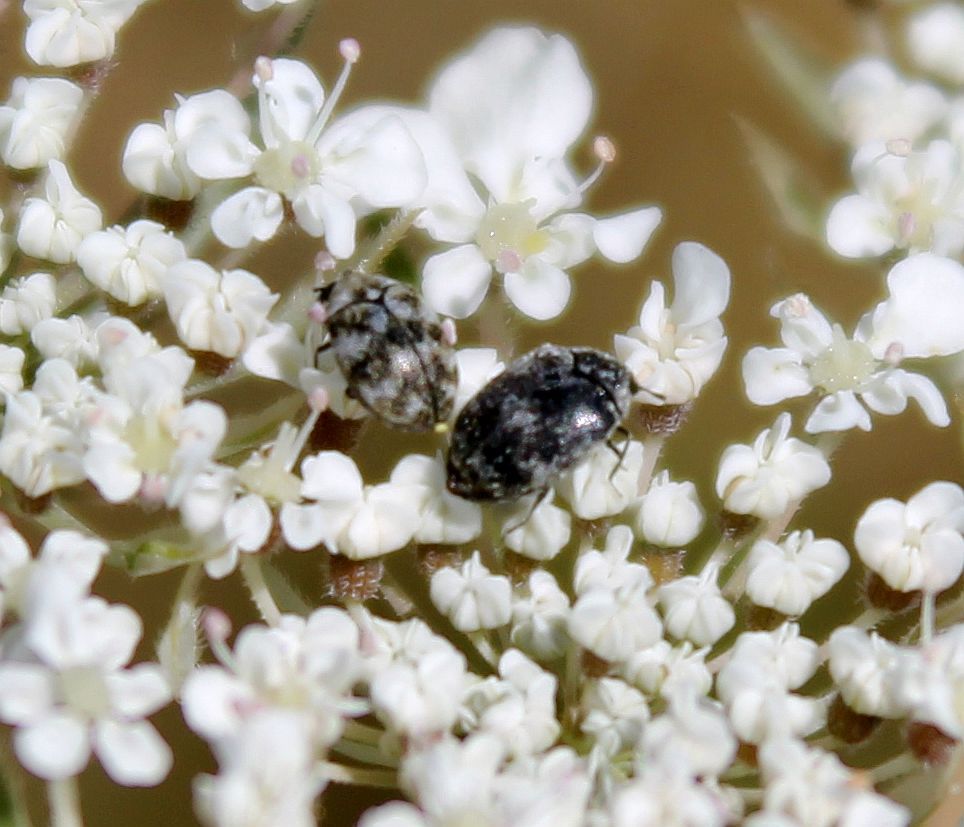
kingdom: Animalia
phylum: Arthropoda
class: Insecta
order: Coleoptera
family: Dermestidae
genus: Anthrenus
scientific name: Anthrenus verbasci
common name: Varied carpet beetle
